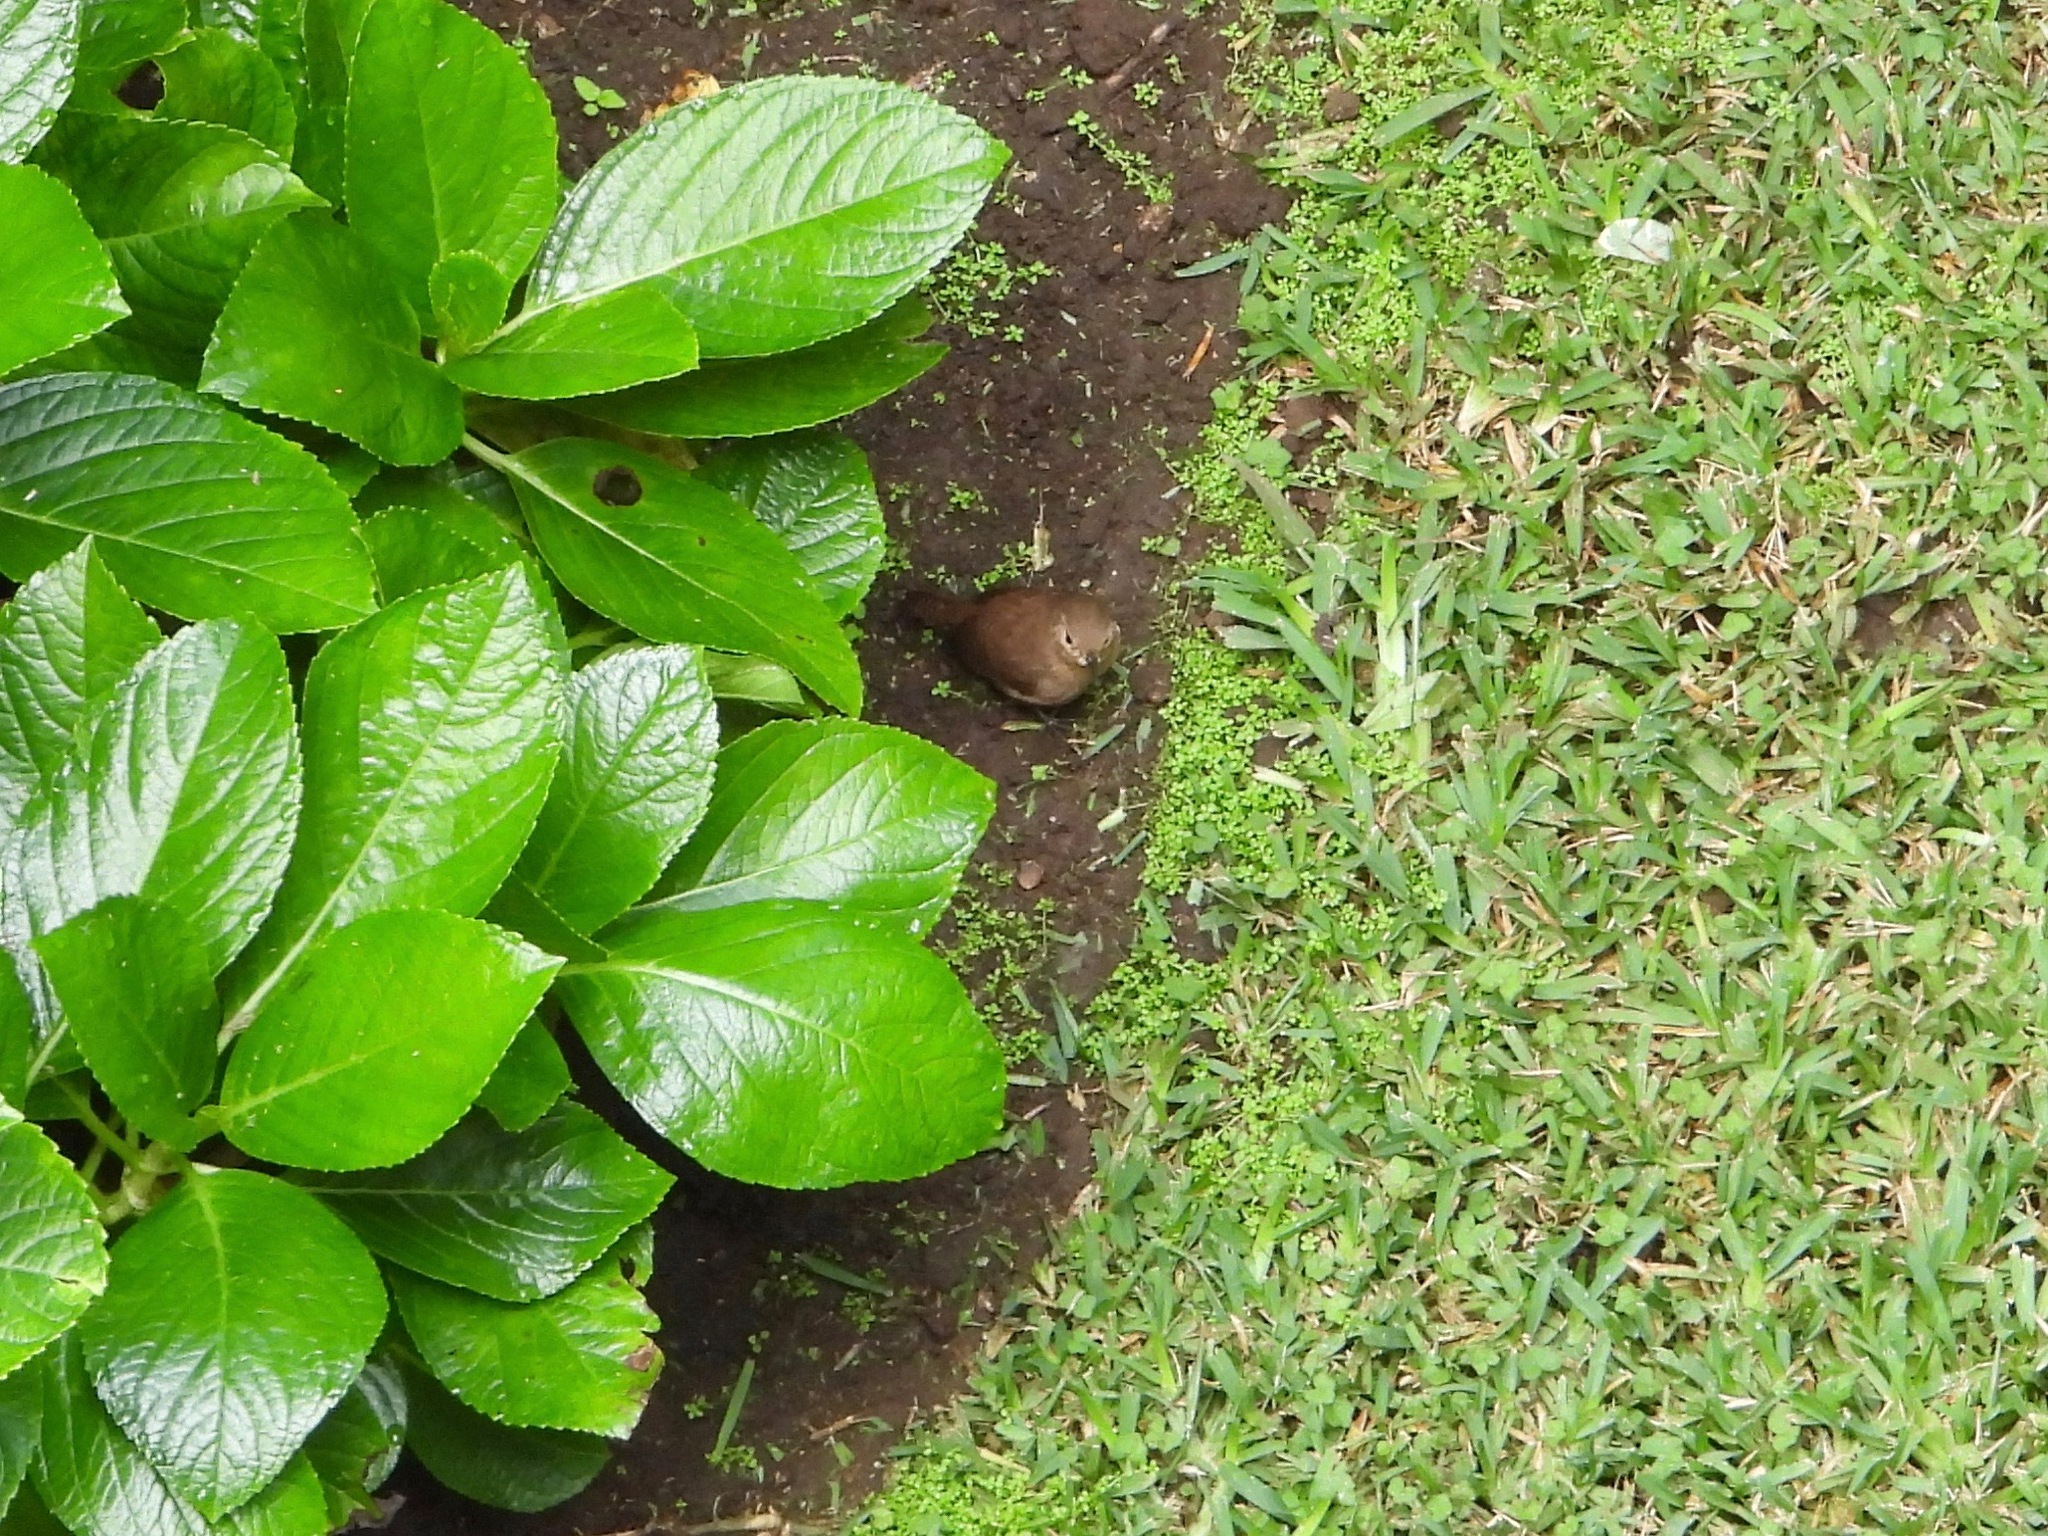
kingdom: Animalia
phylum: Chordata
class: Aves
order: Passeriformes
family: Troglodytidae
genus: Troglodytes
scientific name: Troglodytes aedon
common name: House wren
